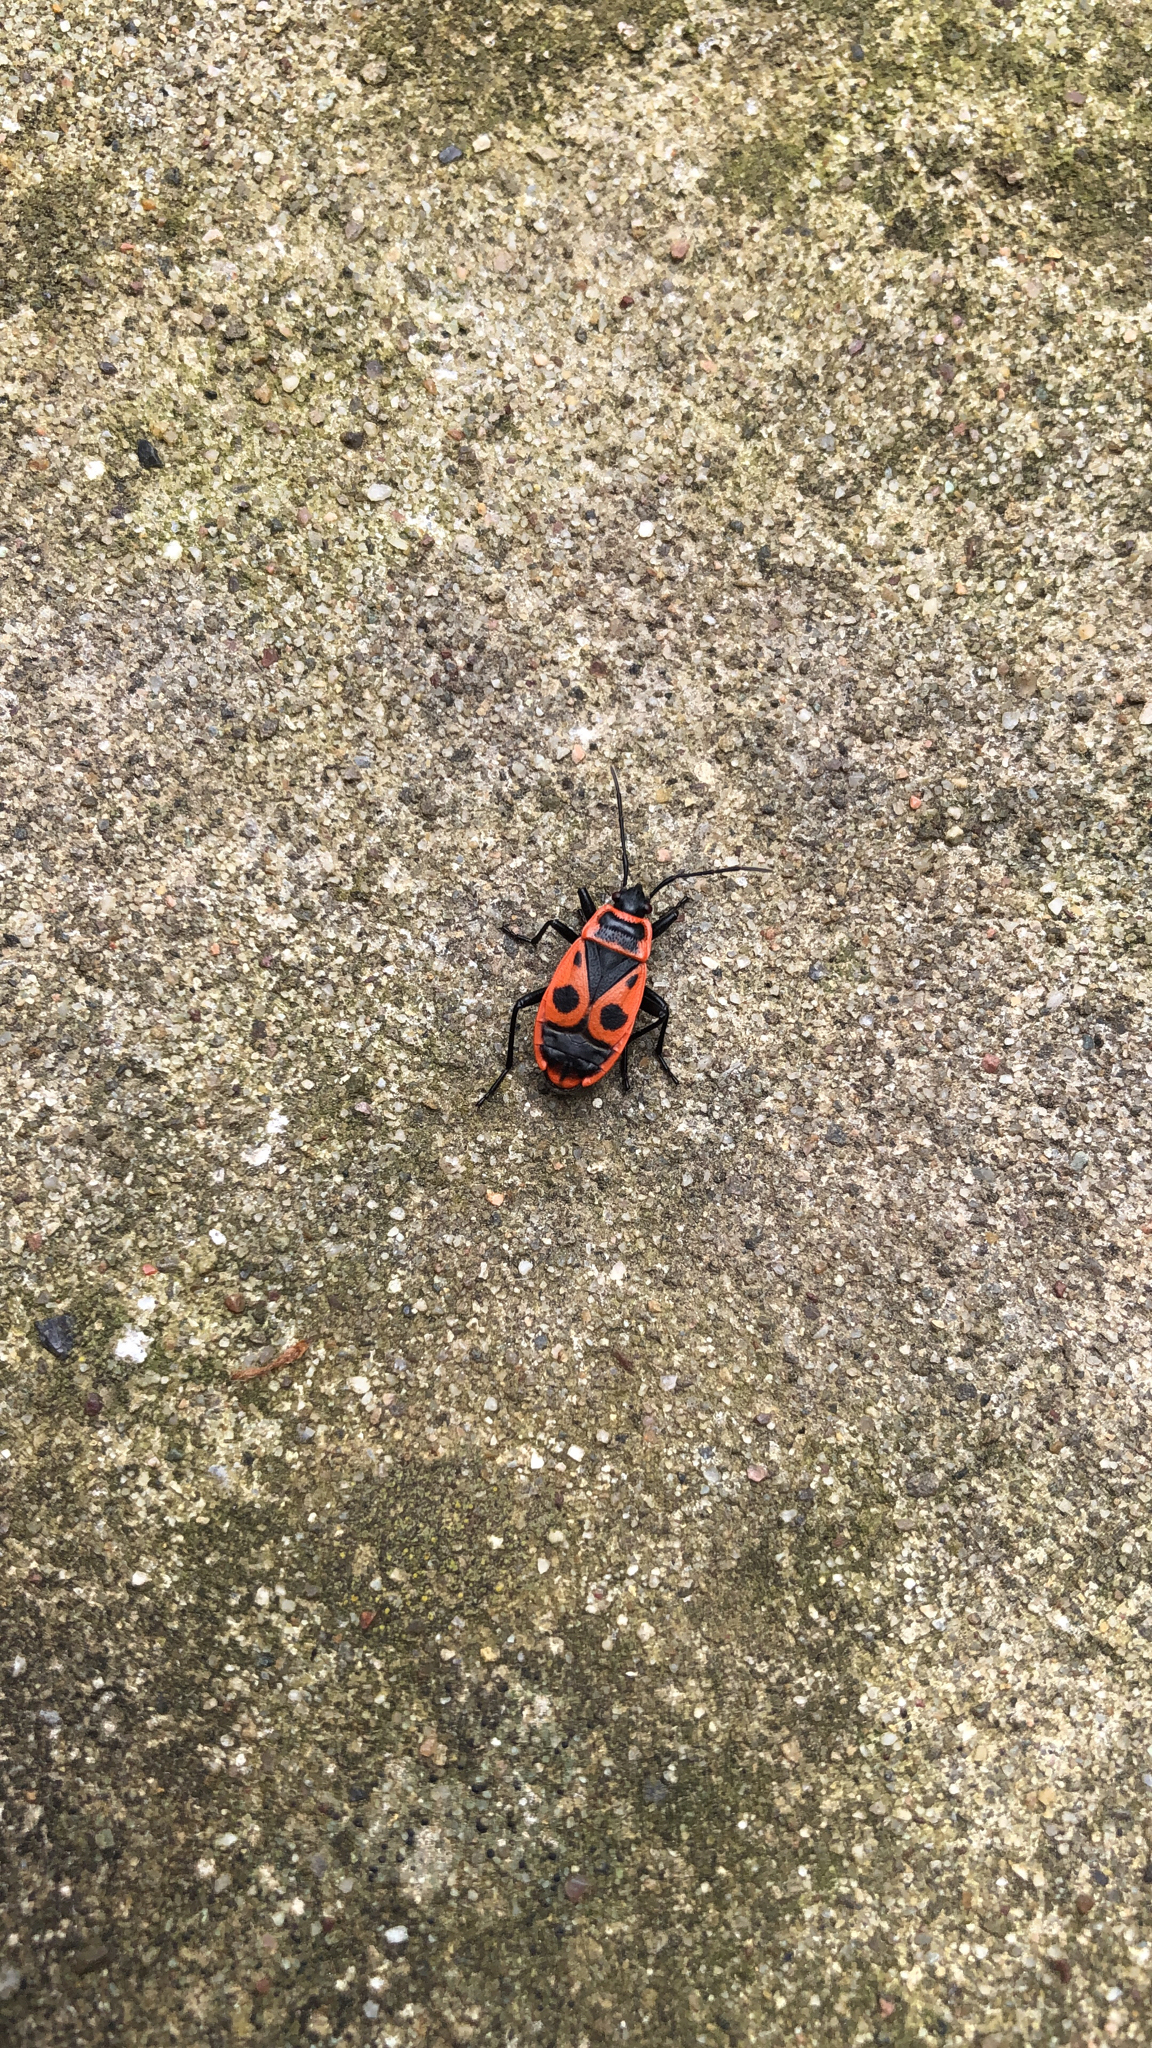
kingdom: Animalia
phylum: Arthropoda
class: Insecta
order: Hemiptera
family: Pyrrhocoridae
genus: Pyrrhocoris
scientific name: Pyrrhocoris apterus
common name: Firebug
